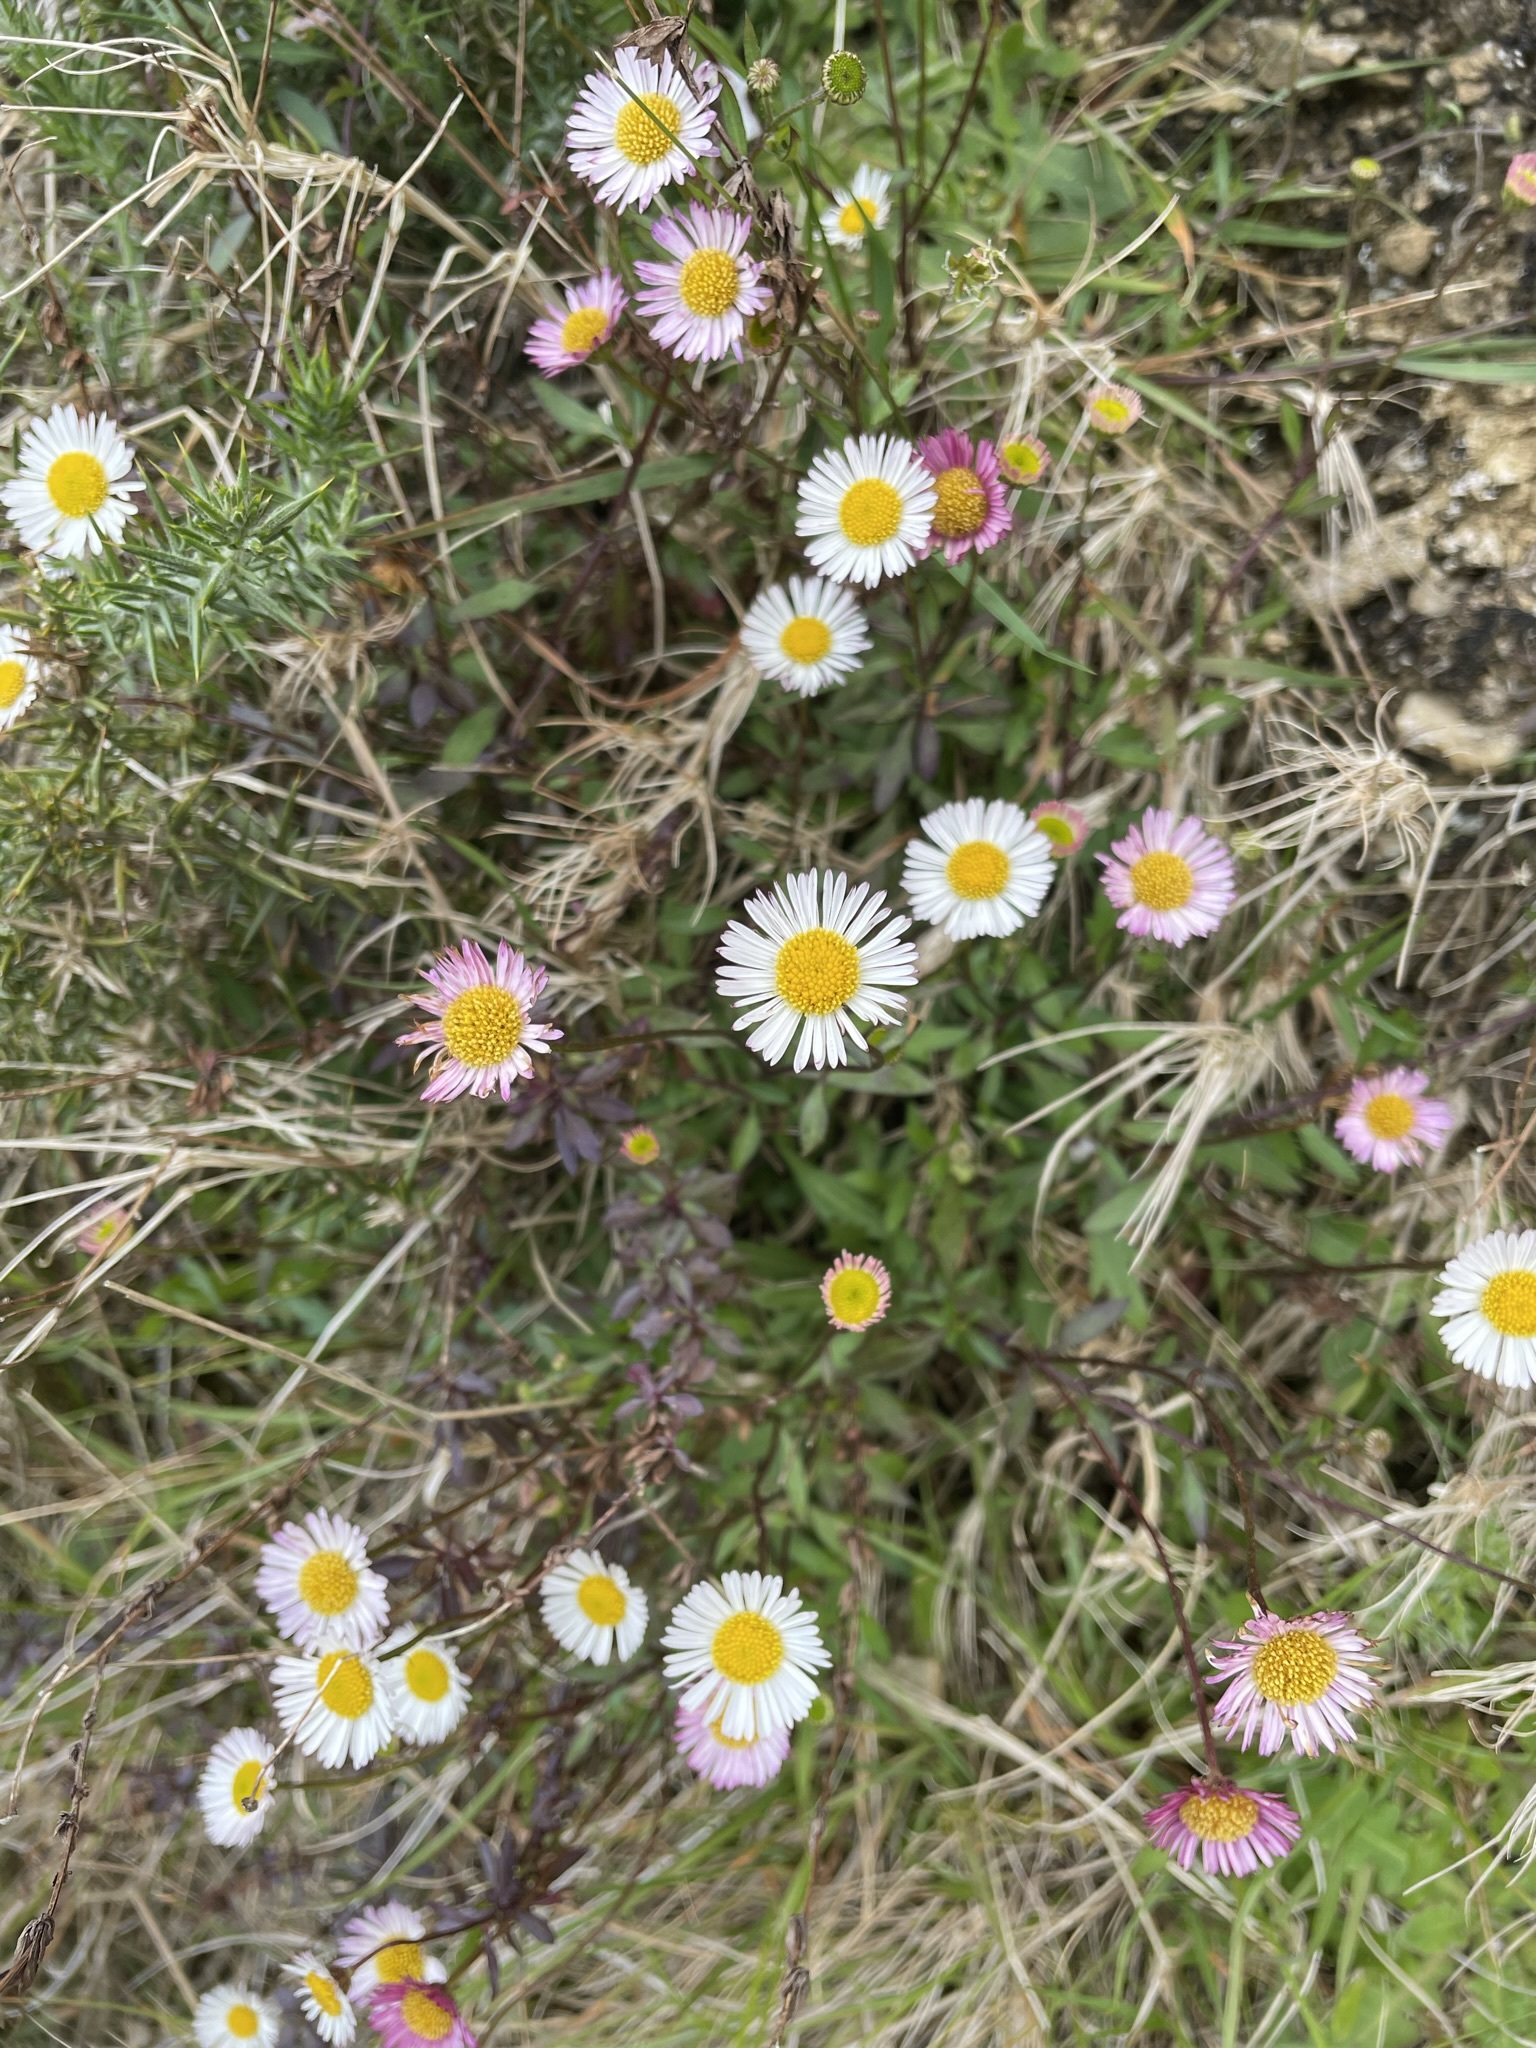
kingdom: Plantae
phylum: Tracheophyta
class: Magnoliopsida
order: Asterales
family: Asteraceae
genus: Erigeron
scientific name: Erigeron karvinskianus
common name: Mexican fleabane
